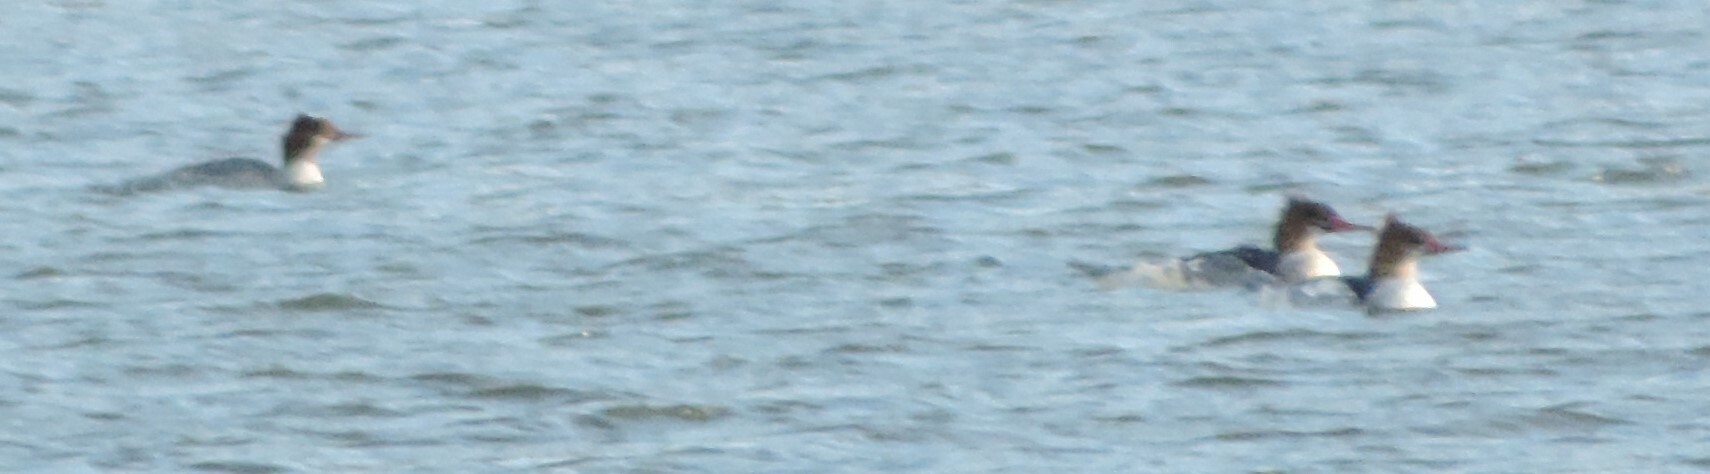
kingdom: Animalia
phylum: Chordata
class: Aves
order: Anseriformes
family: Anatidae
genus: Mergus
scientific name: Mergus merganser
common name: Common merganser
